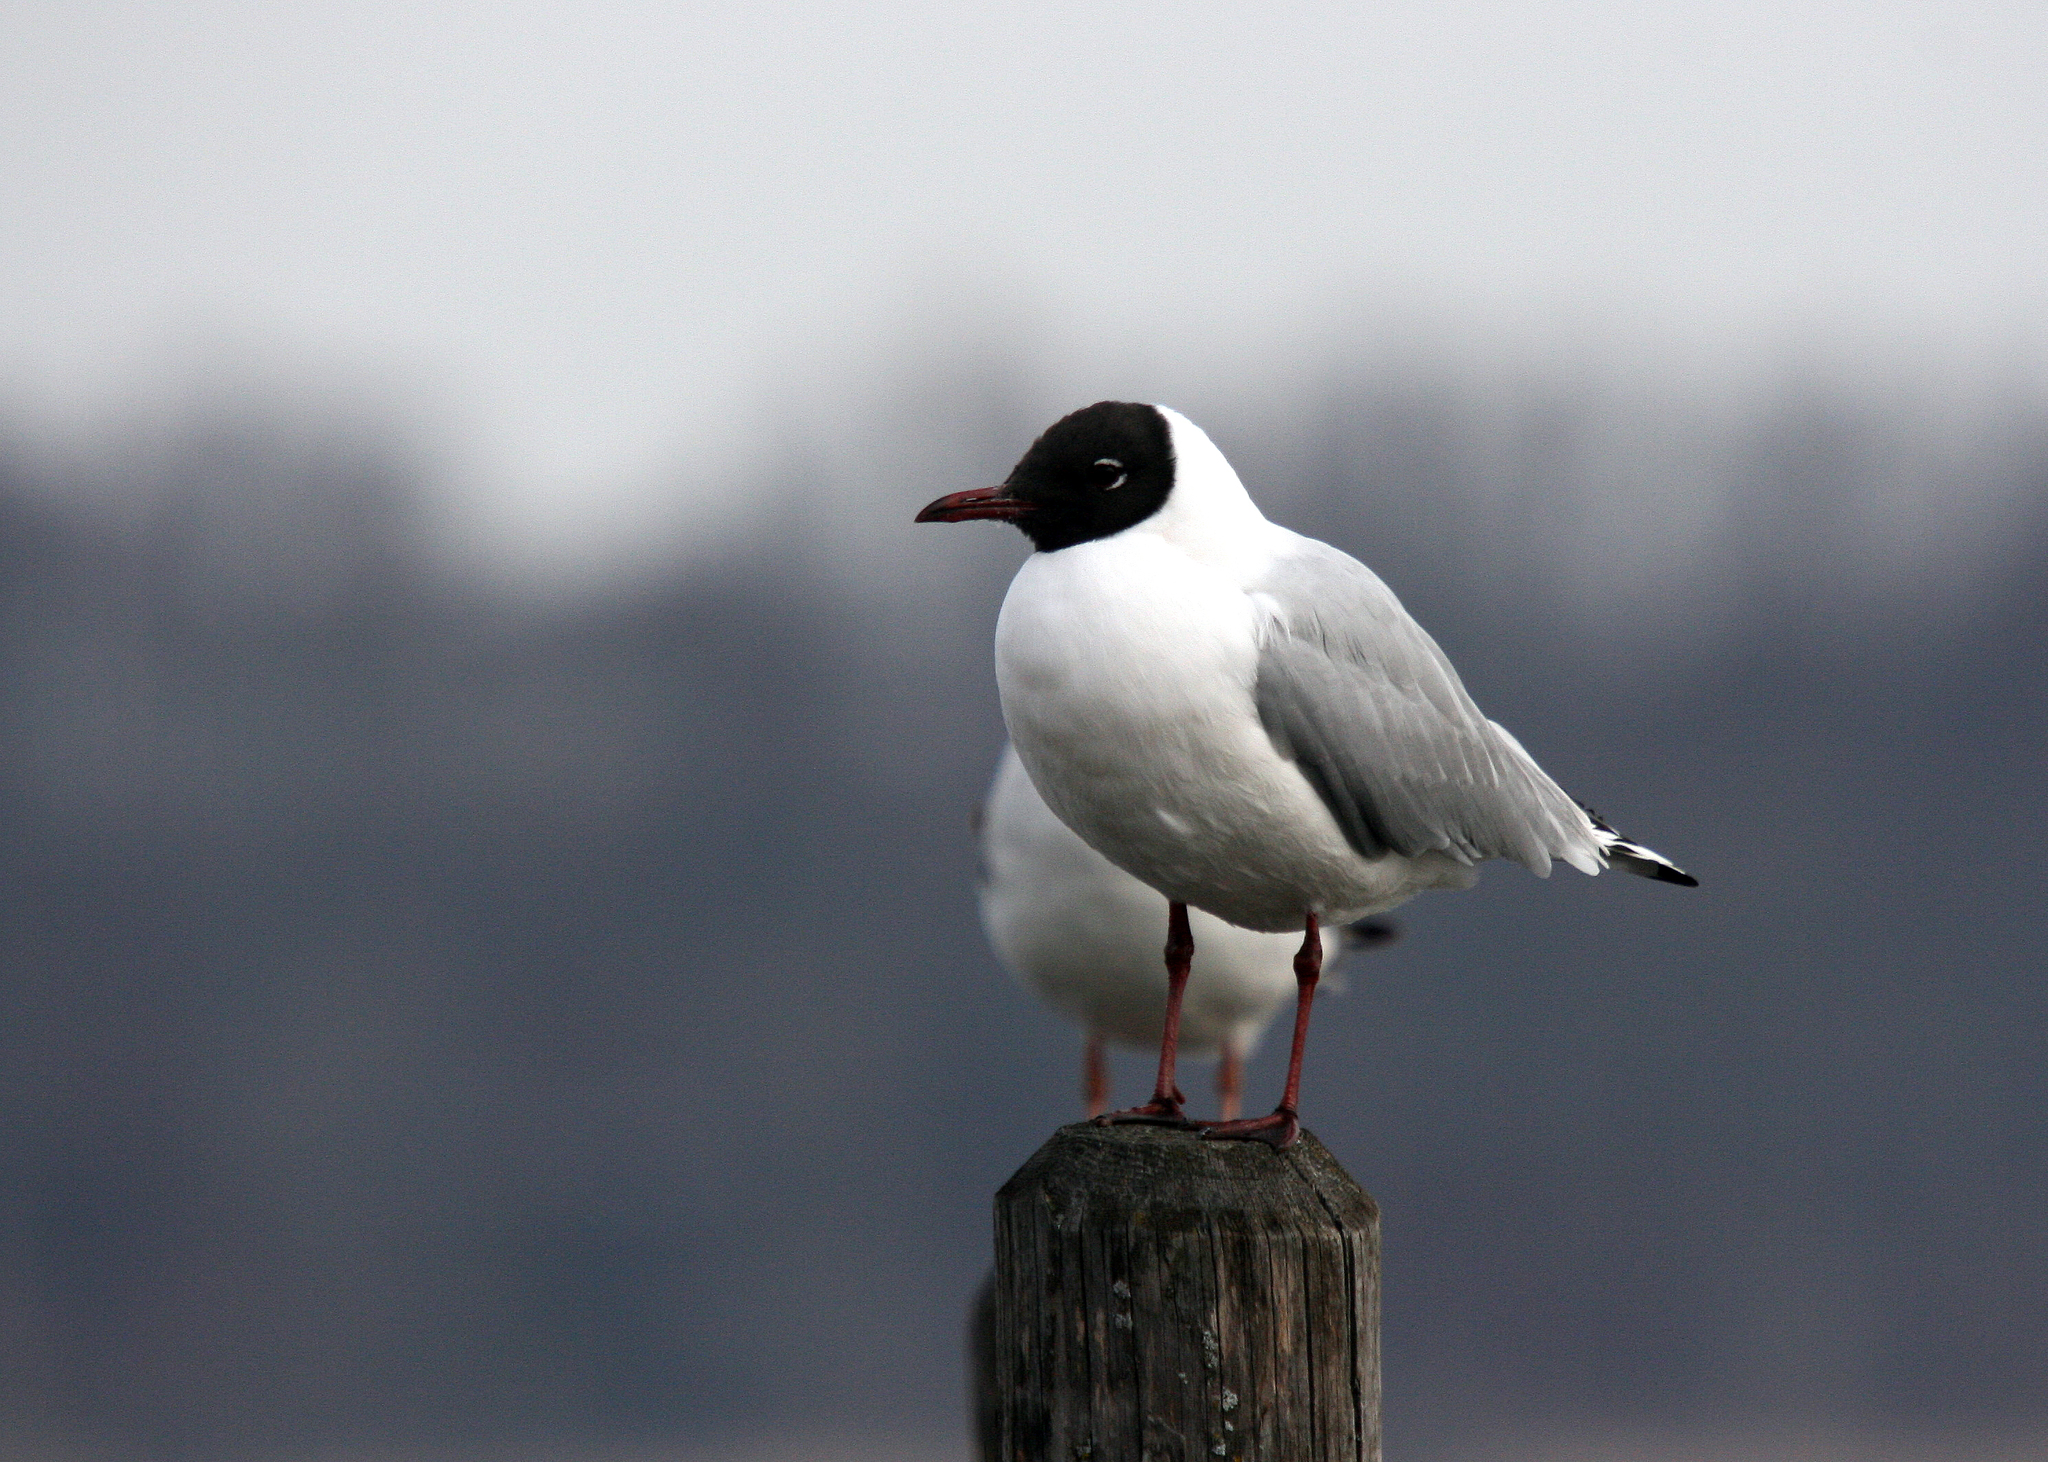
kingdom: Animalia
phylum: Chordata
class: Aves
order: Charadriiformes
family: Laridae
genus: Chroicocephalus
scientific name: Chroicocephalus ridibundus
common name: Black-headed gull
